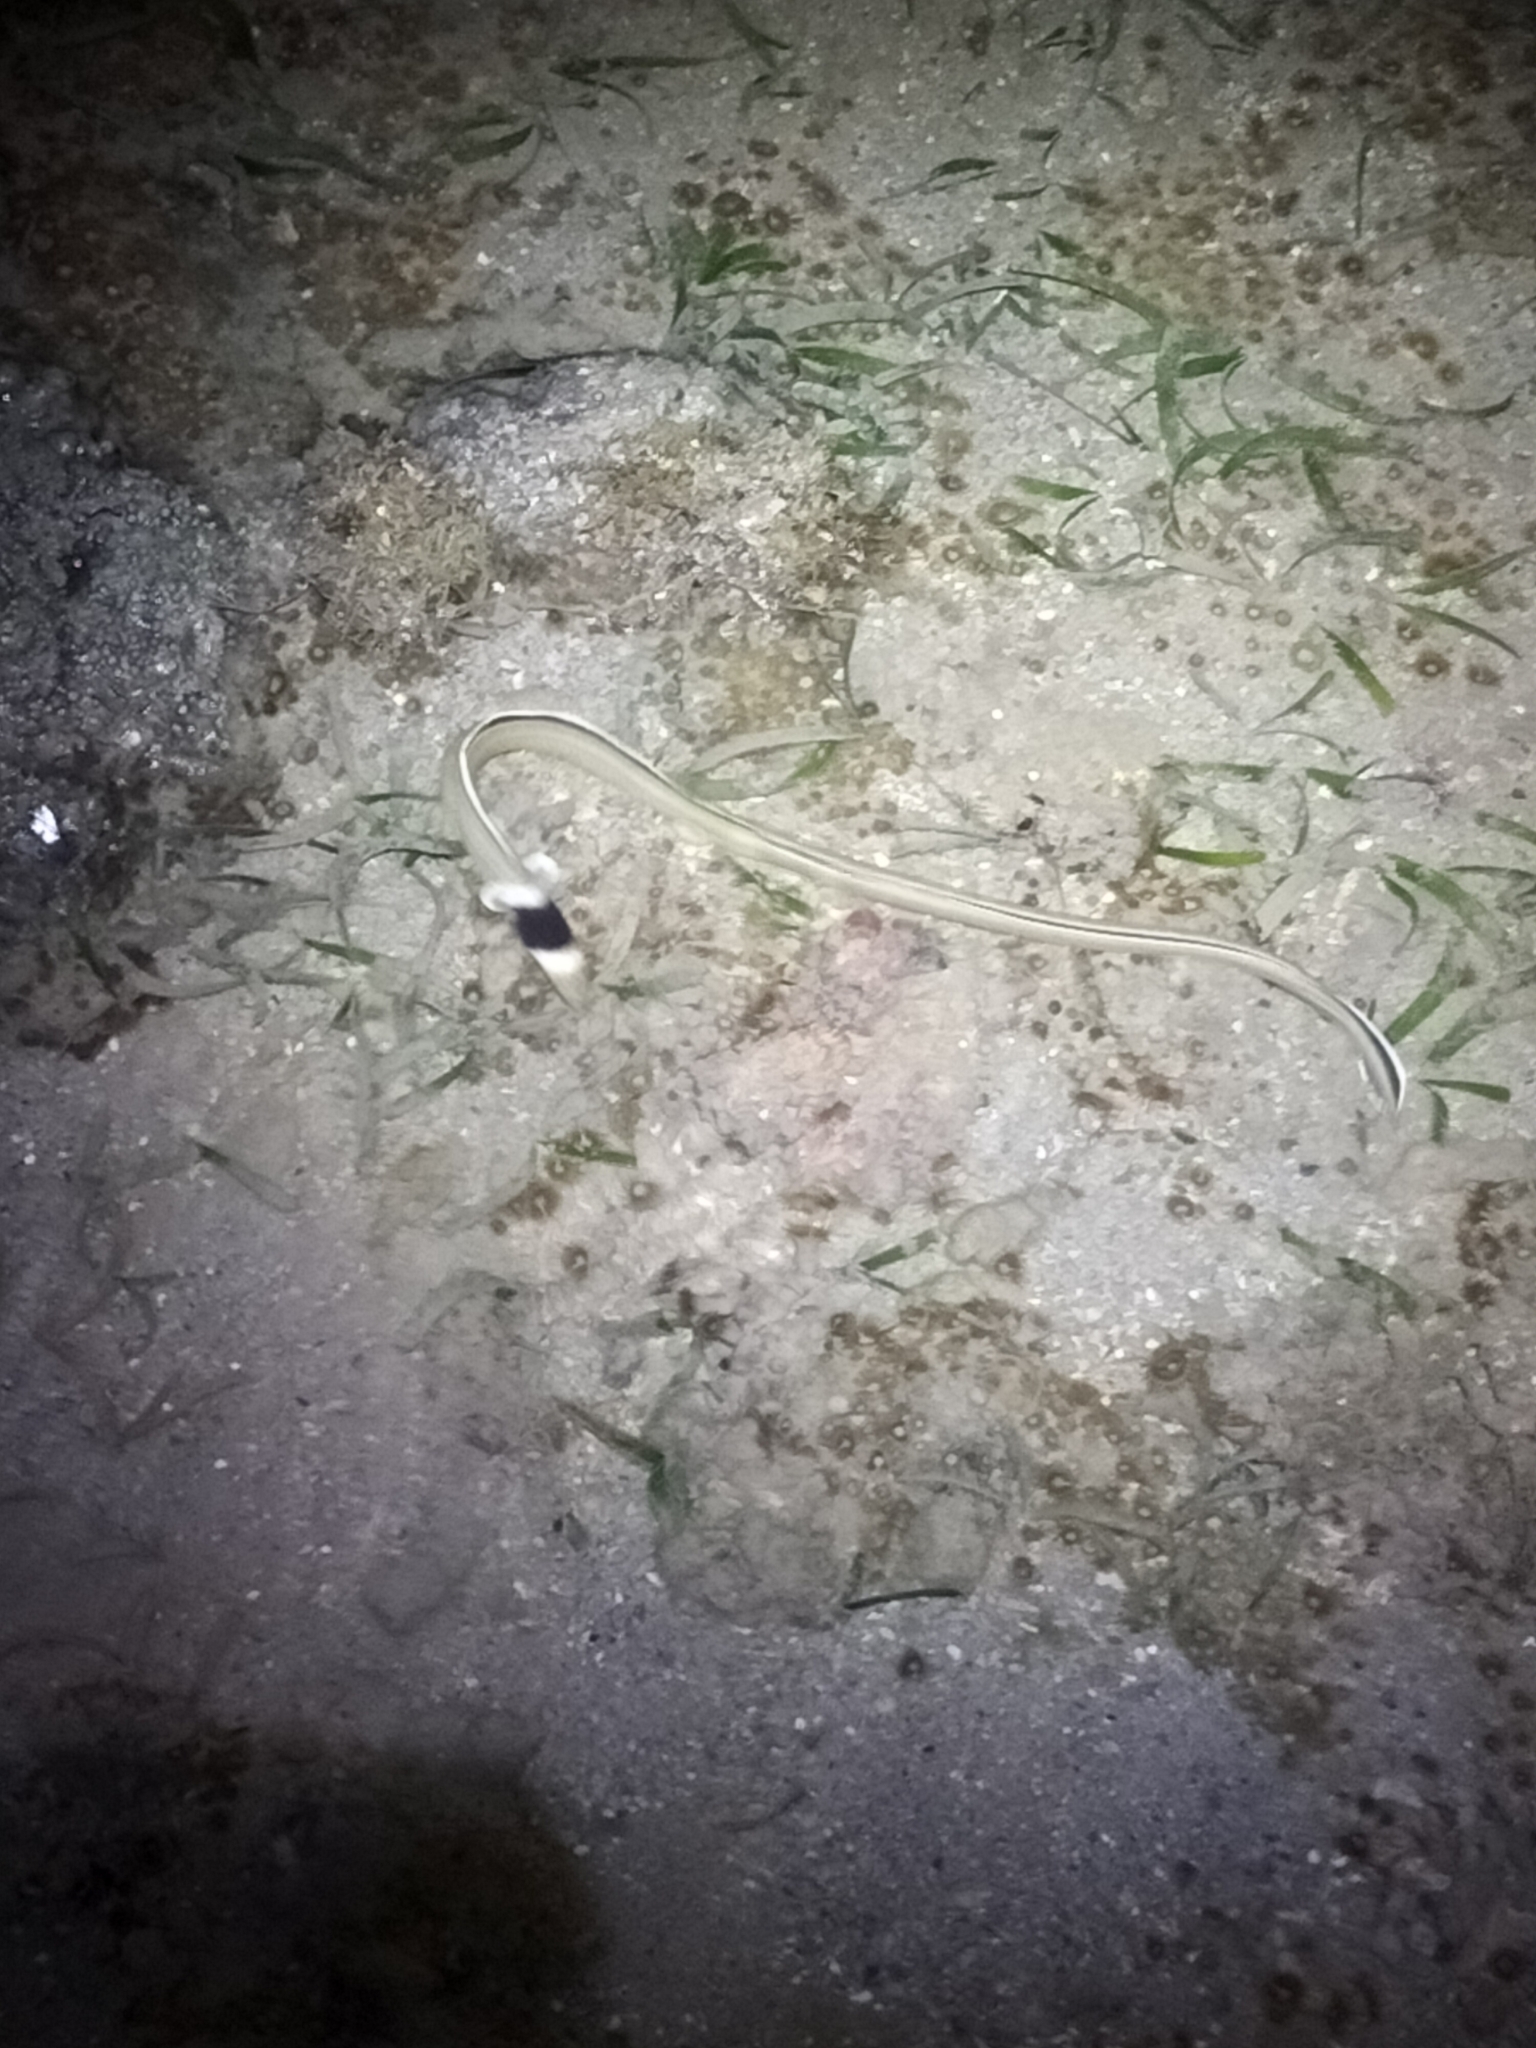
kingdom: Animalia
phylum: Chordata
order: Anguilliformes
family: Ophichthidae
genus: Ophichthus
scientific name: Ophichthus cephalozona
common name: Dark-shouldered snake eel
